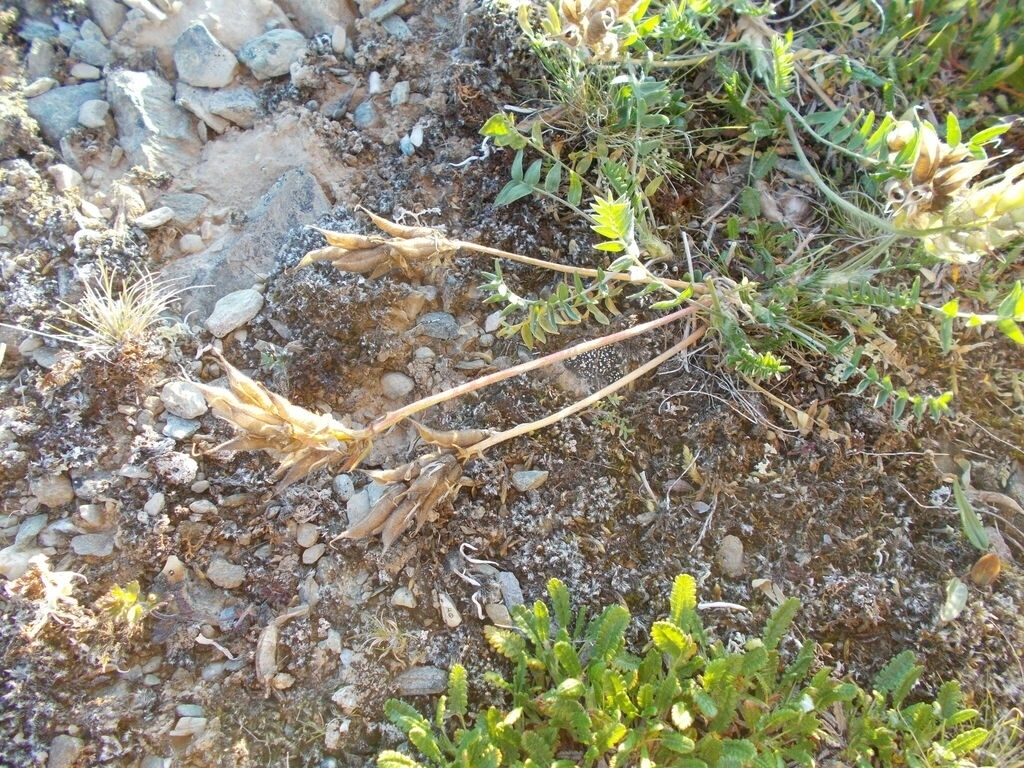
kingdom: Plantae
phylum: Tracheophyta
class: Magnoliopsida
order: Fabales
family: Fabaceae
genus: Oxytropis
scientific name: Oxytropis sordida
